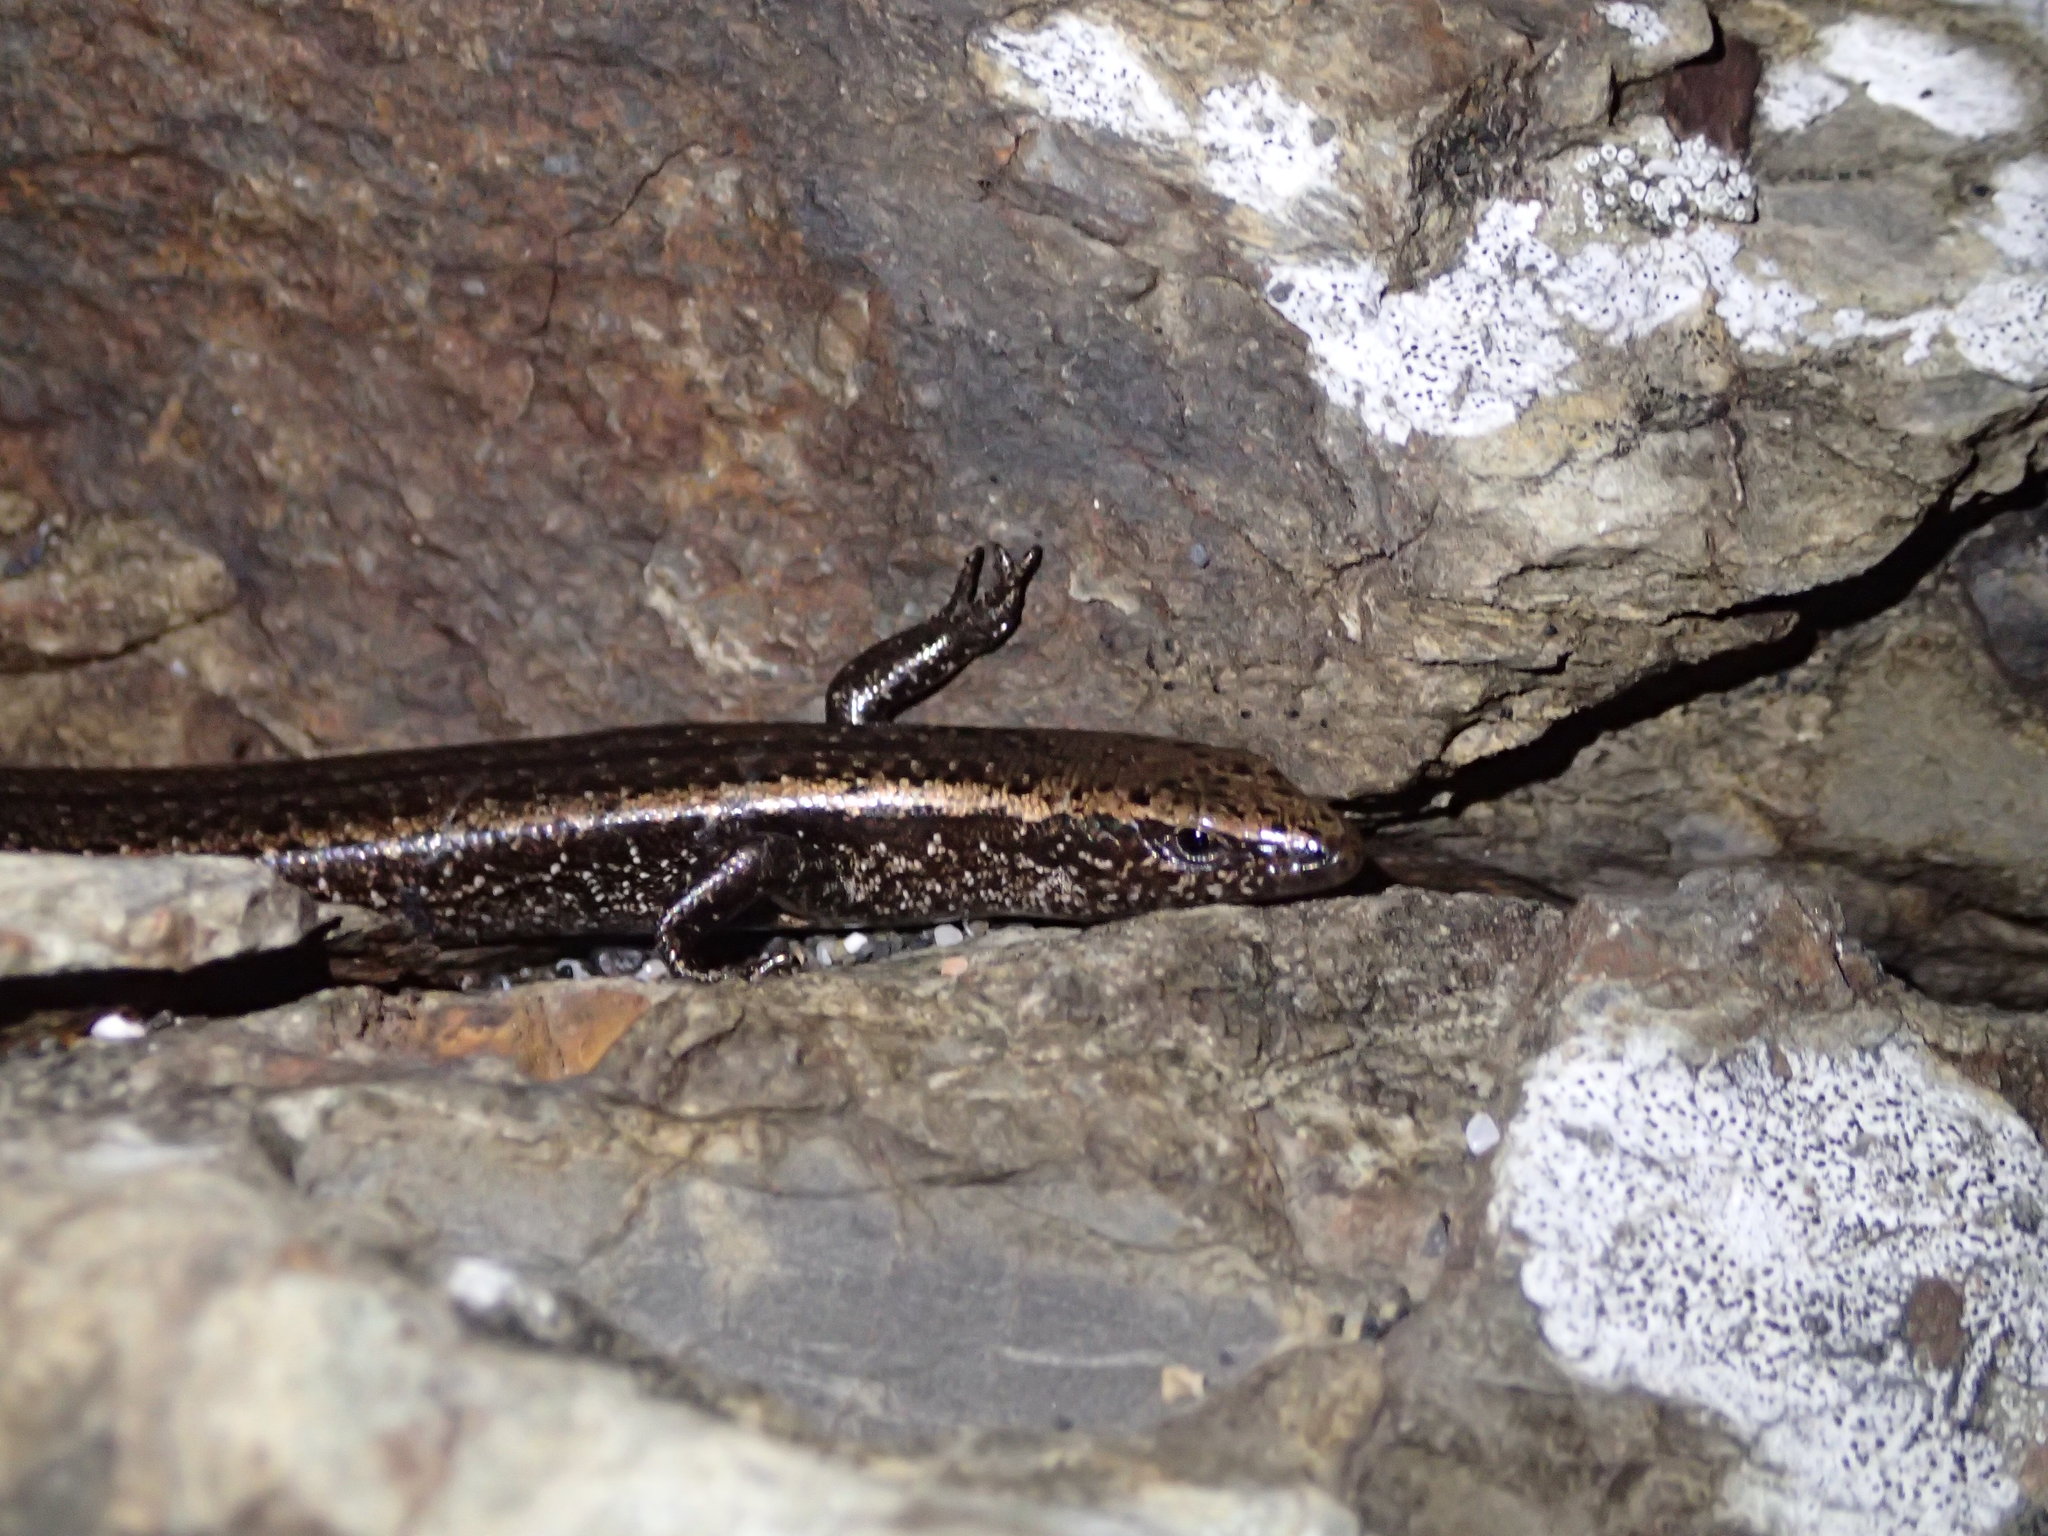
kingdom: Animalia
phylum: Chordata
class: Squamata
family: Scincidae
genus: Oligosoma
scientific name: Oligosoma smithi
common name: Shore skink
